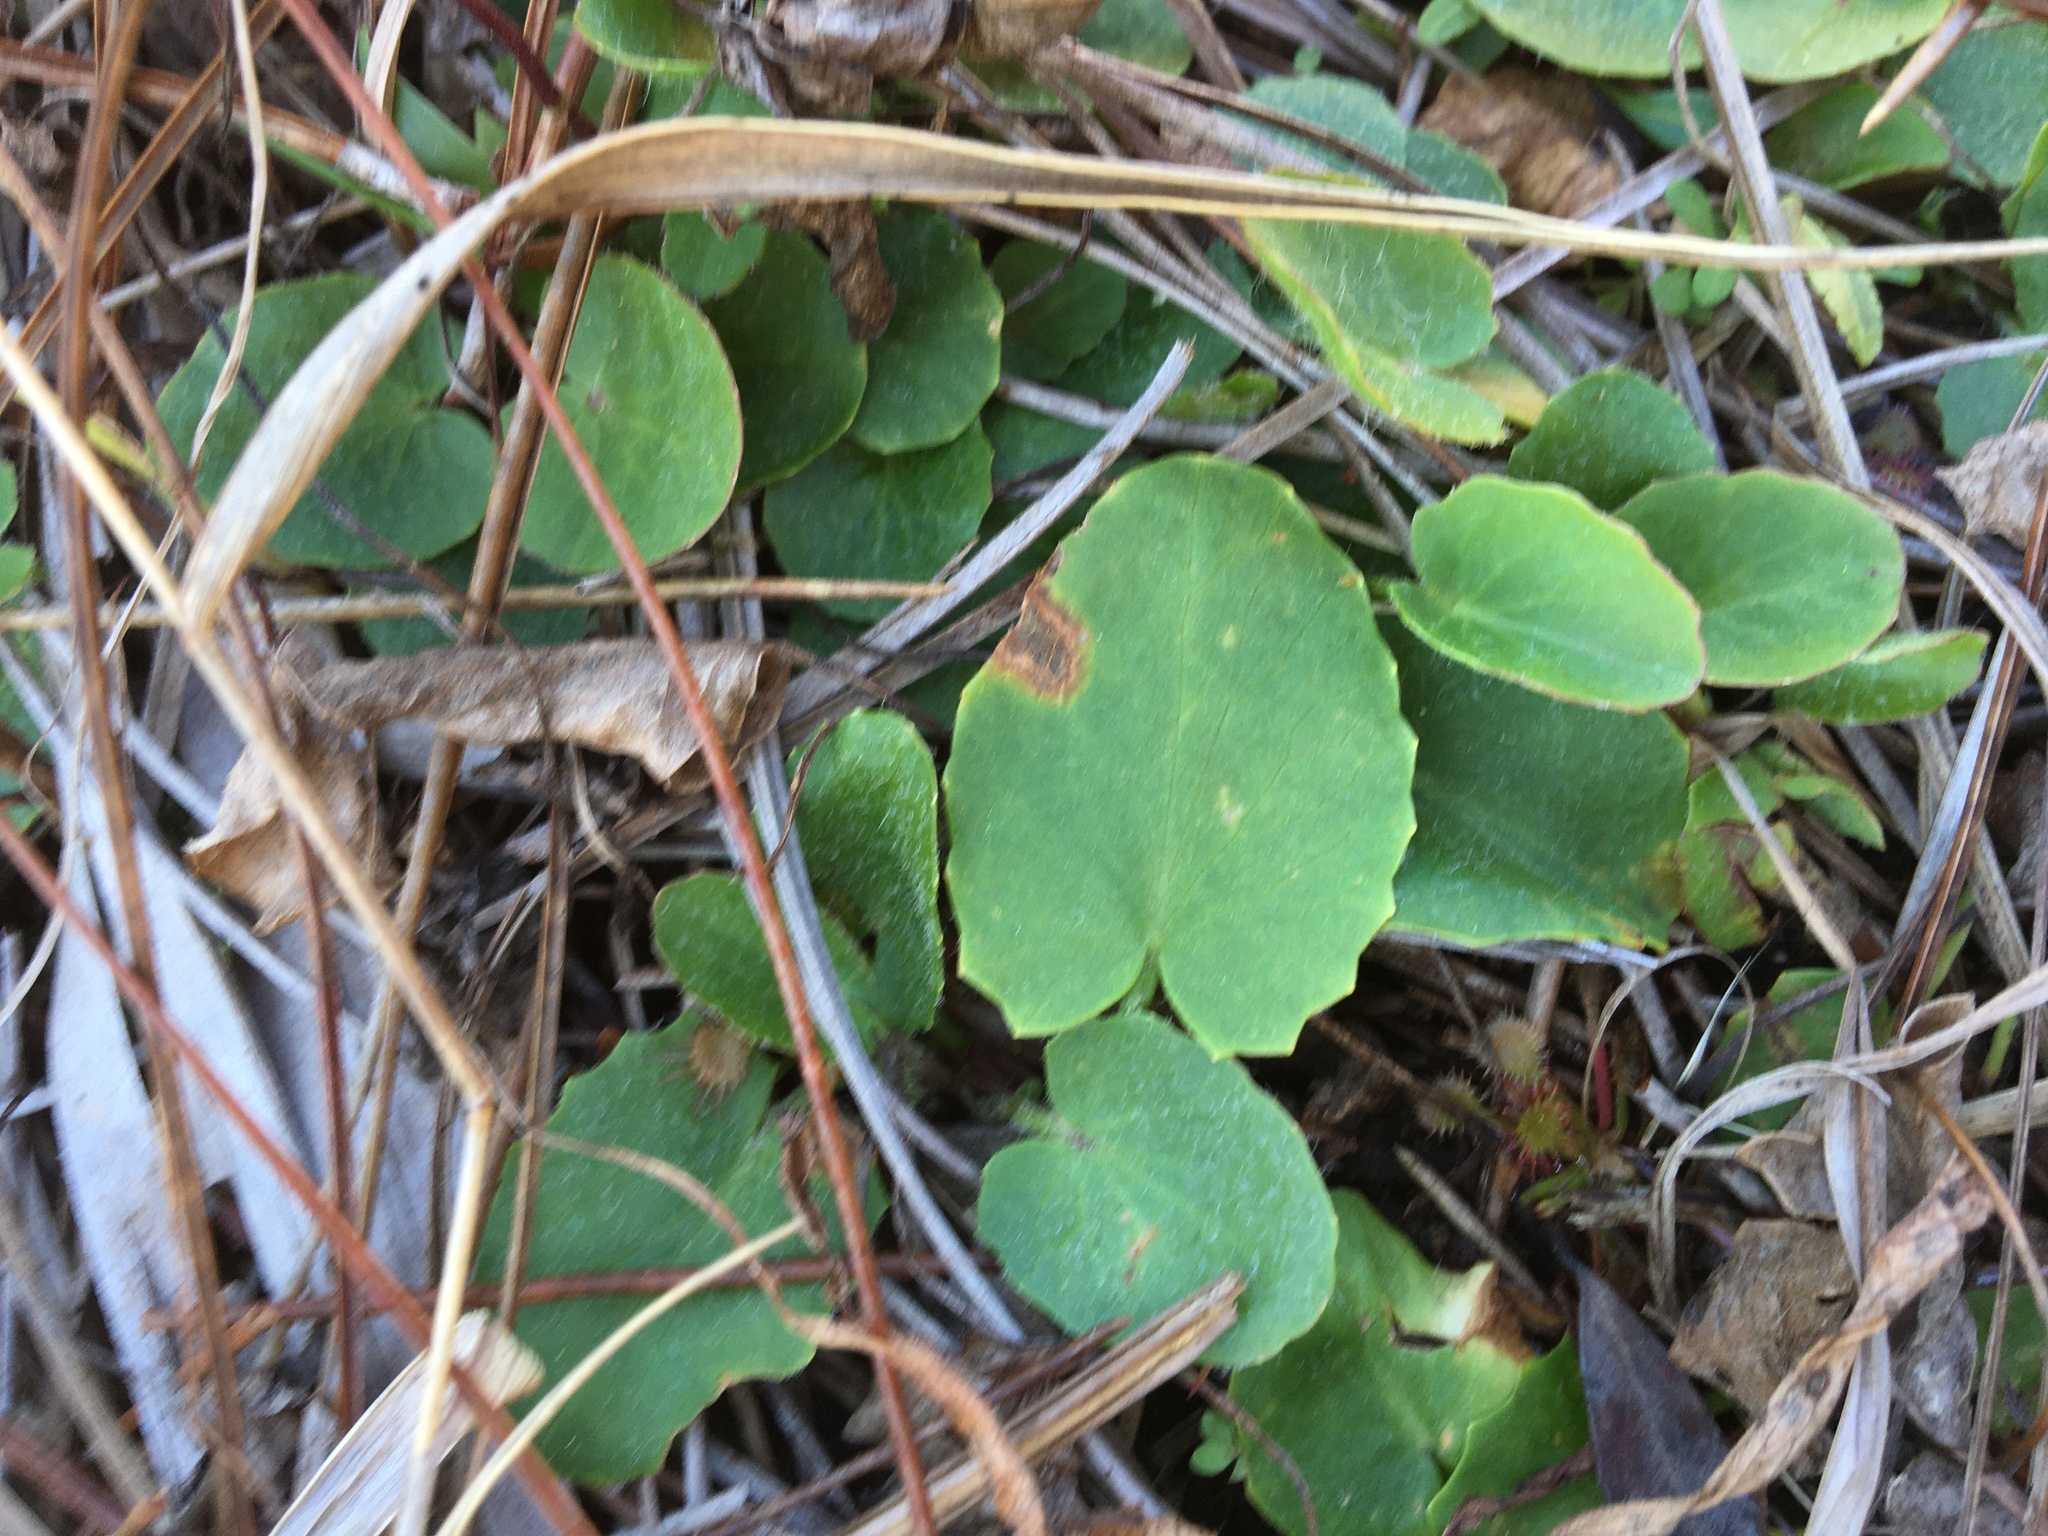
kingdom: Plantae
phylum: Tracheophyta
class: Magnoliopsida
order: Apiales
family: Apiaceae
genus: Centella
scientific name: Centella erecta
